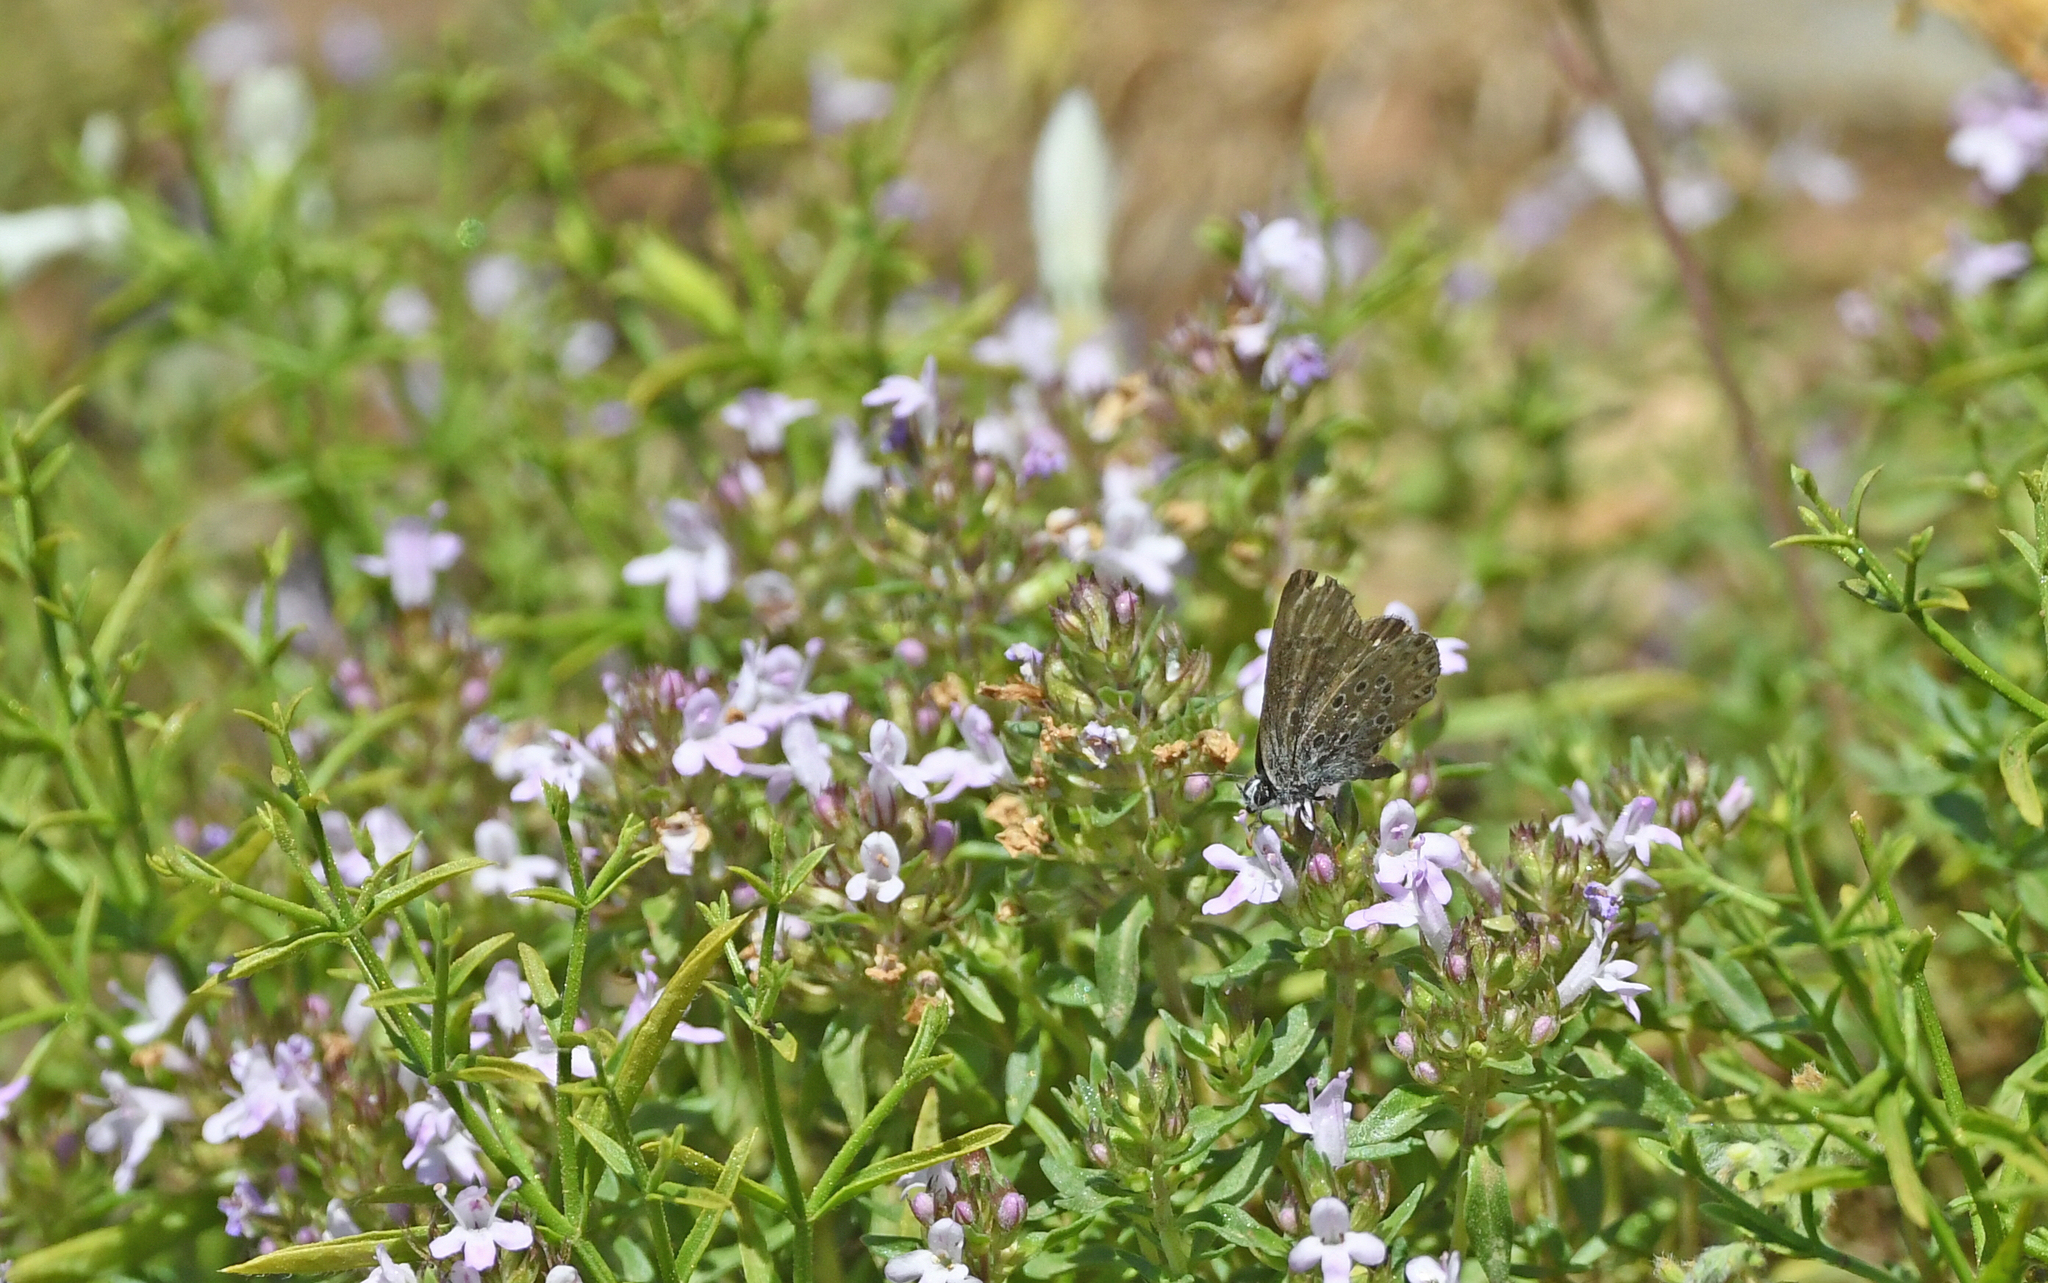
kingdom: Animalia
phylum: Arthropoda
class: Insecta
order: Lepidoptera
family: Lycaenidae
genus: Pseudophilotes
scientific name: Pseudophilotes barbagiae
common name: Sardinian blue
